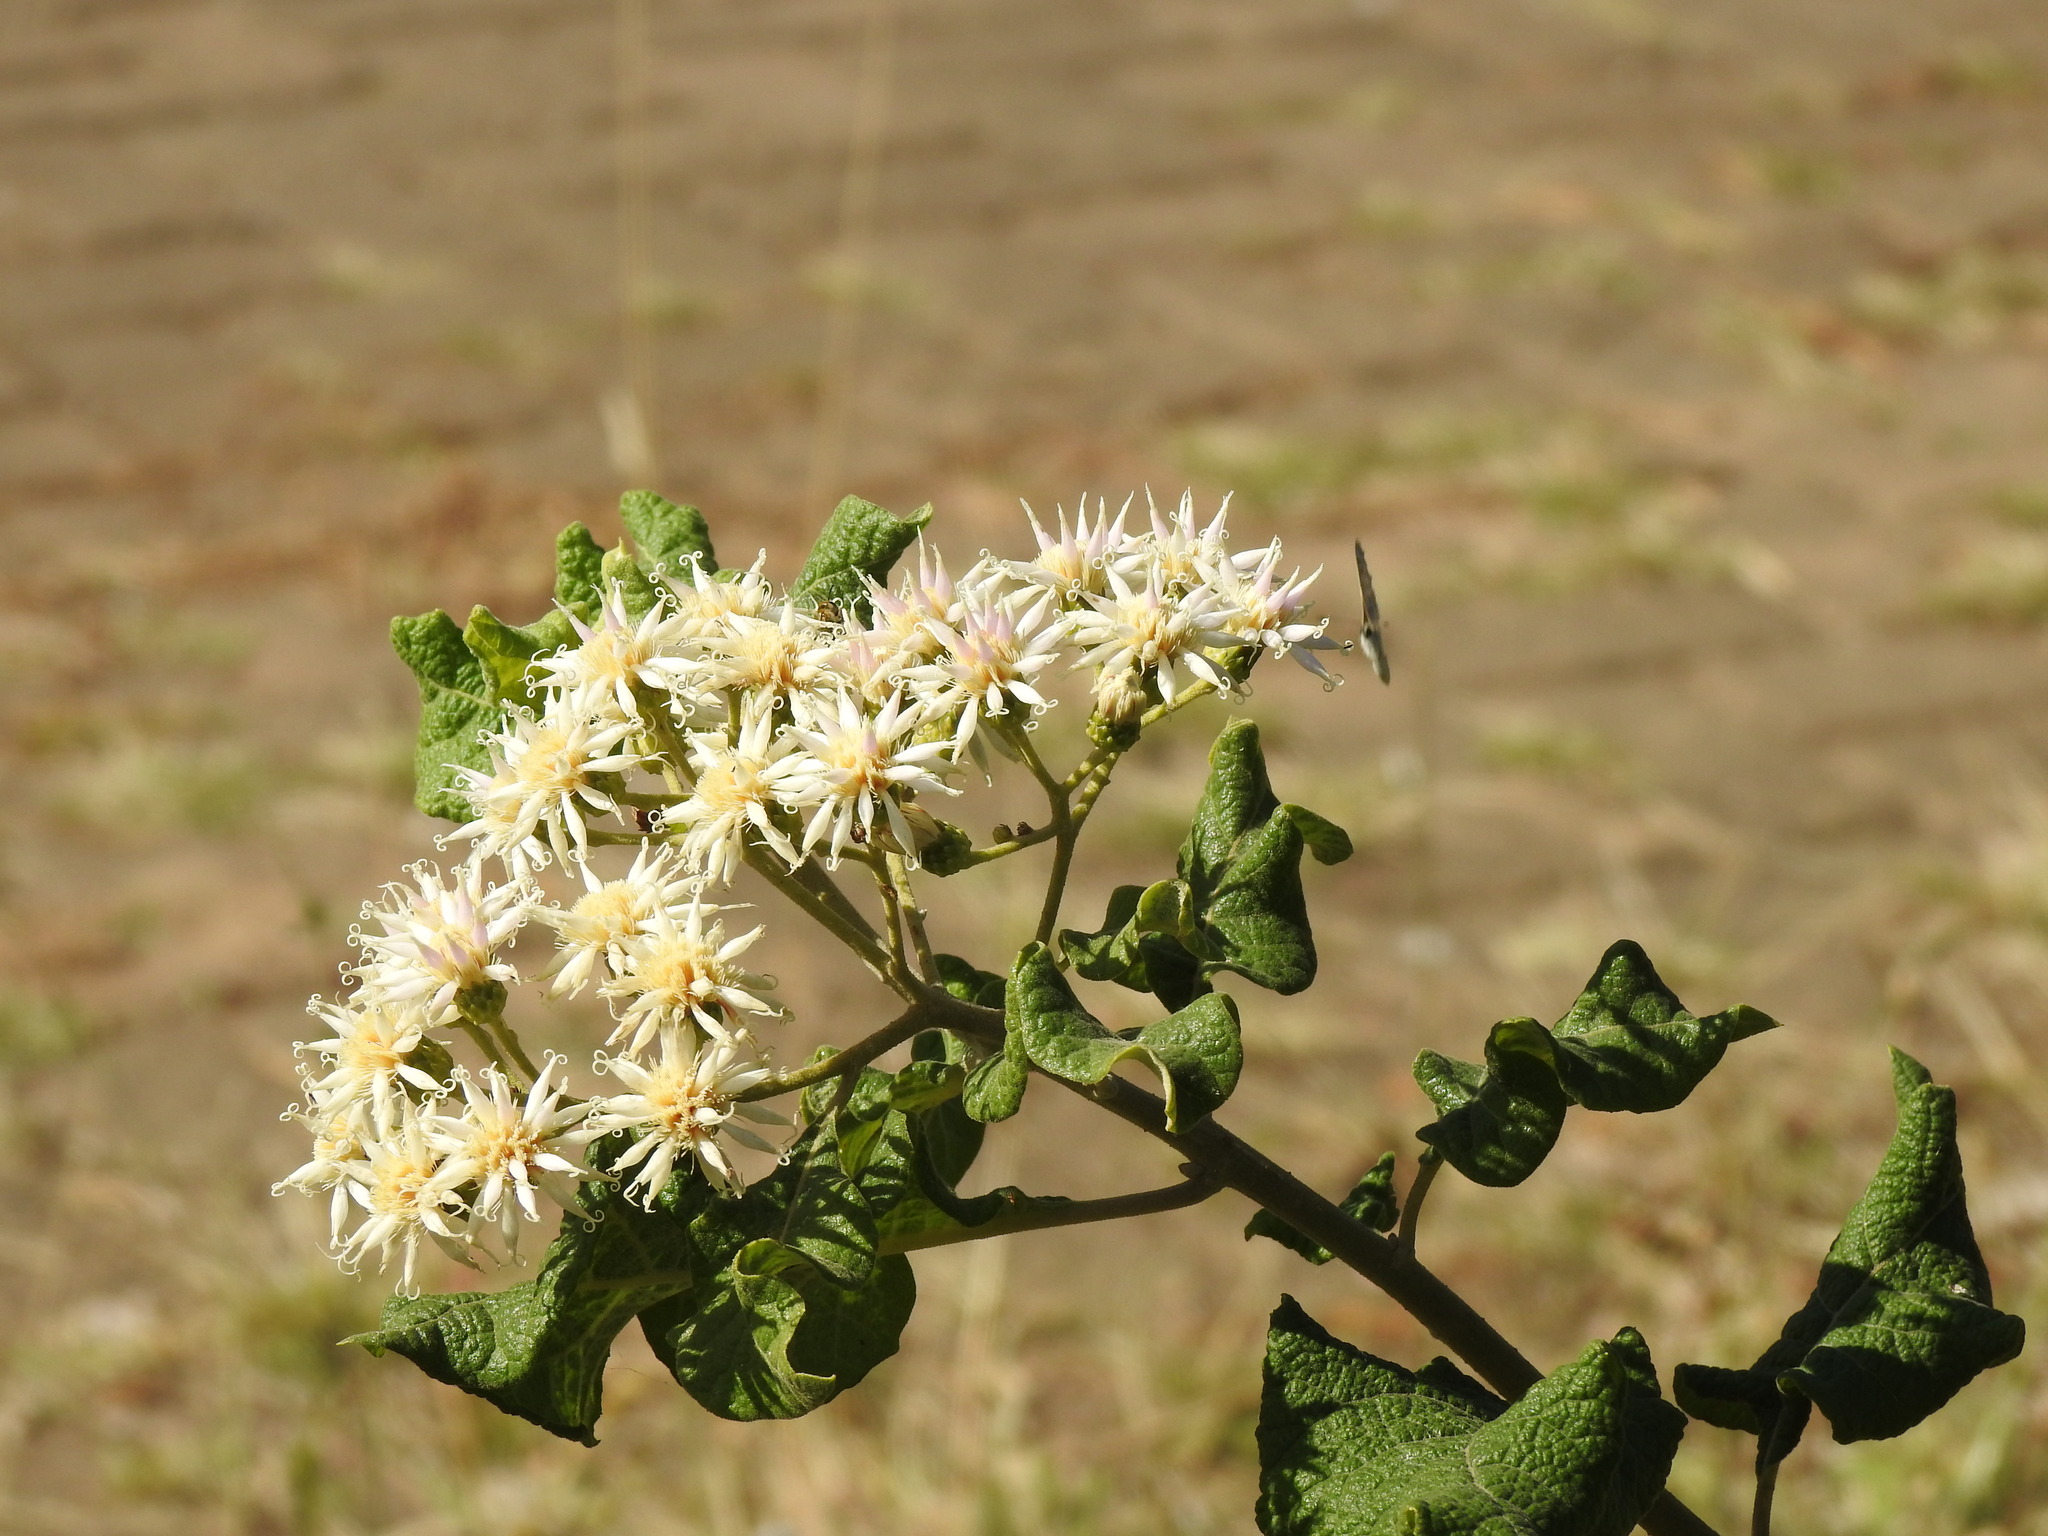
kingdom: Plantae
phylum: Tracheophyta
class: Magnoliopsida
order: Asterales
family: Asteraceae
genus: Vernonia
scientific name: Vernonia colorata
